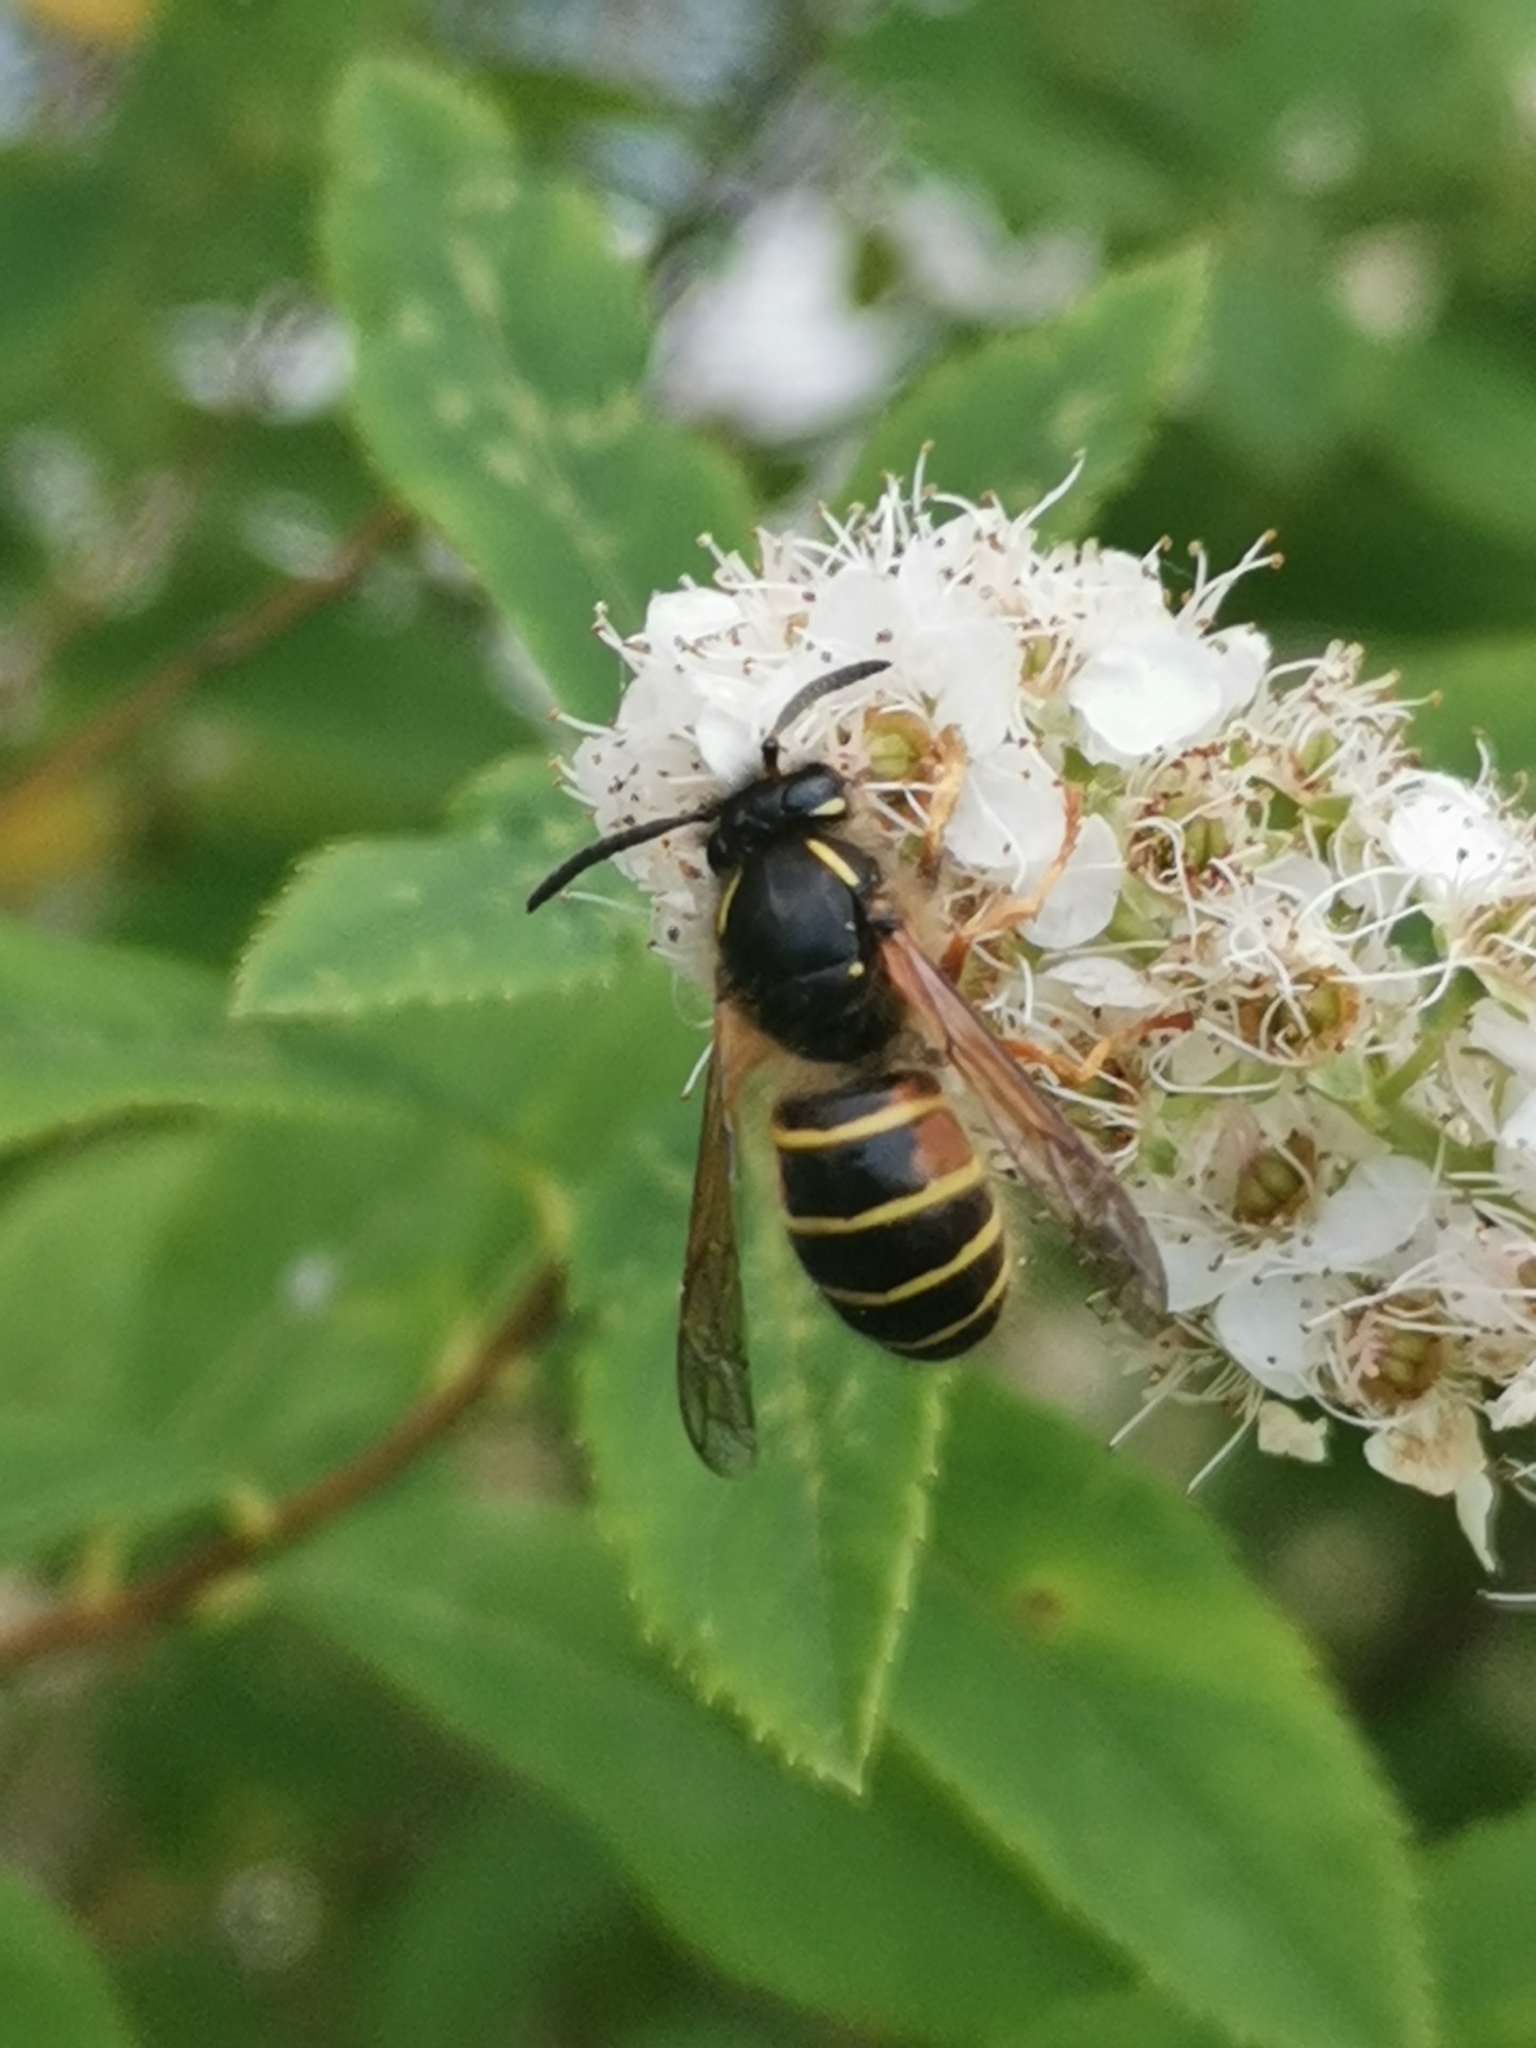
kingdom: Animalia
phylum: Arthropoda
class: Insecta
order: Hymenoptera
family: Vespidae
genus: Dolichovespula
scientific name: Dolichovespula norwegica
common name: Norwegian wasp
